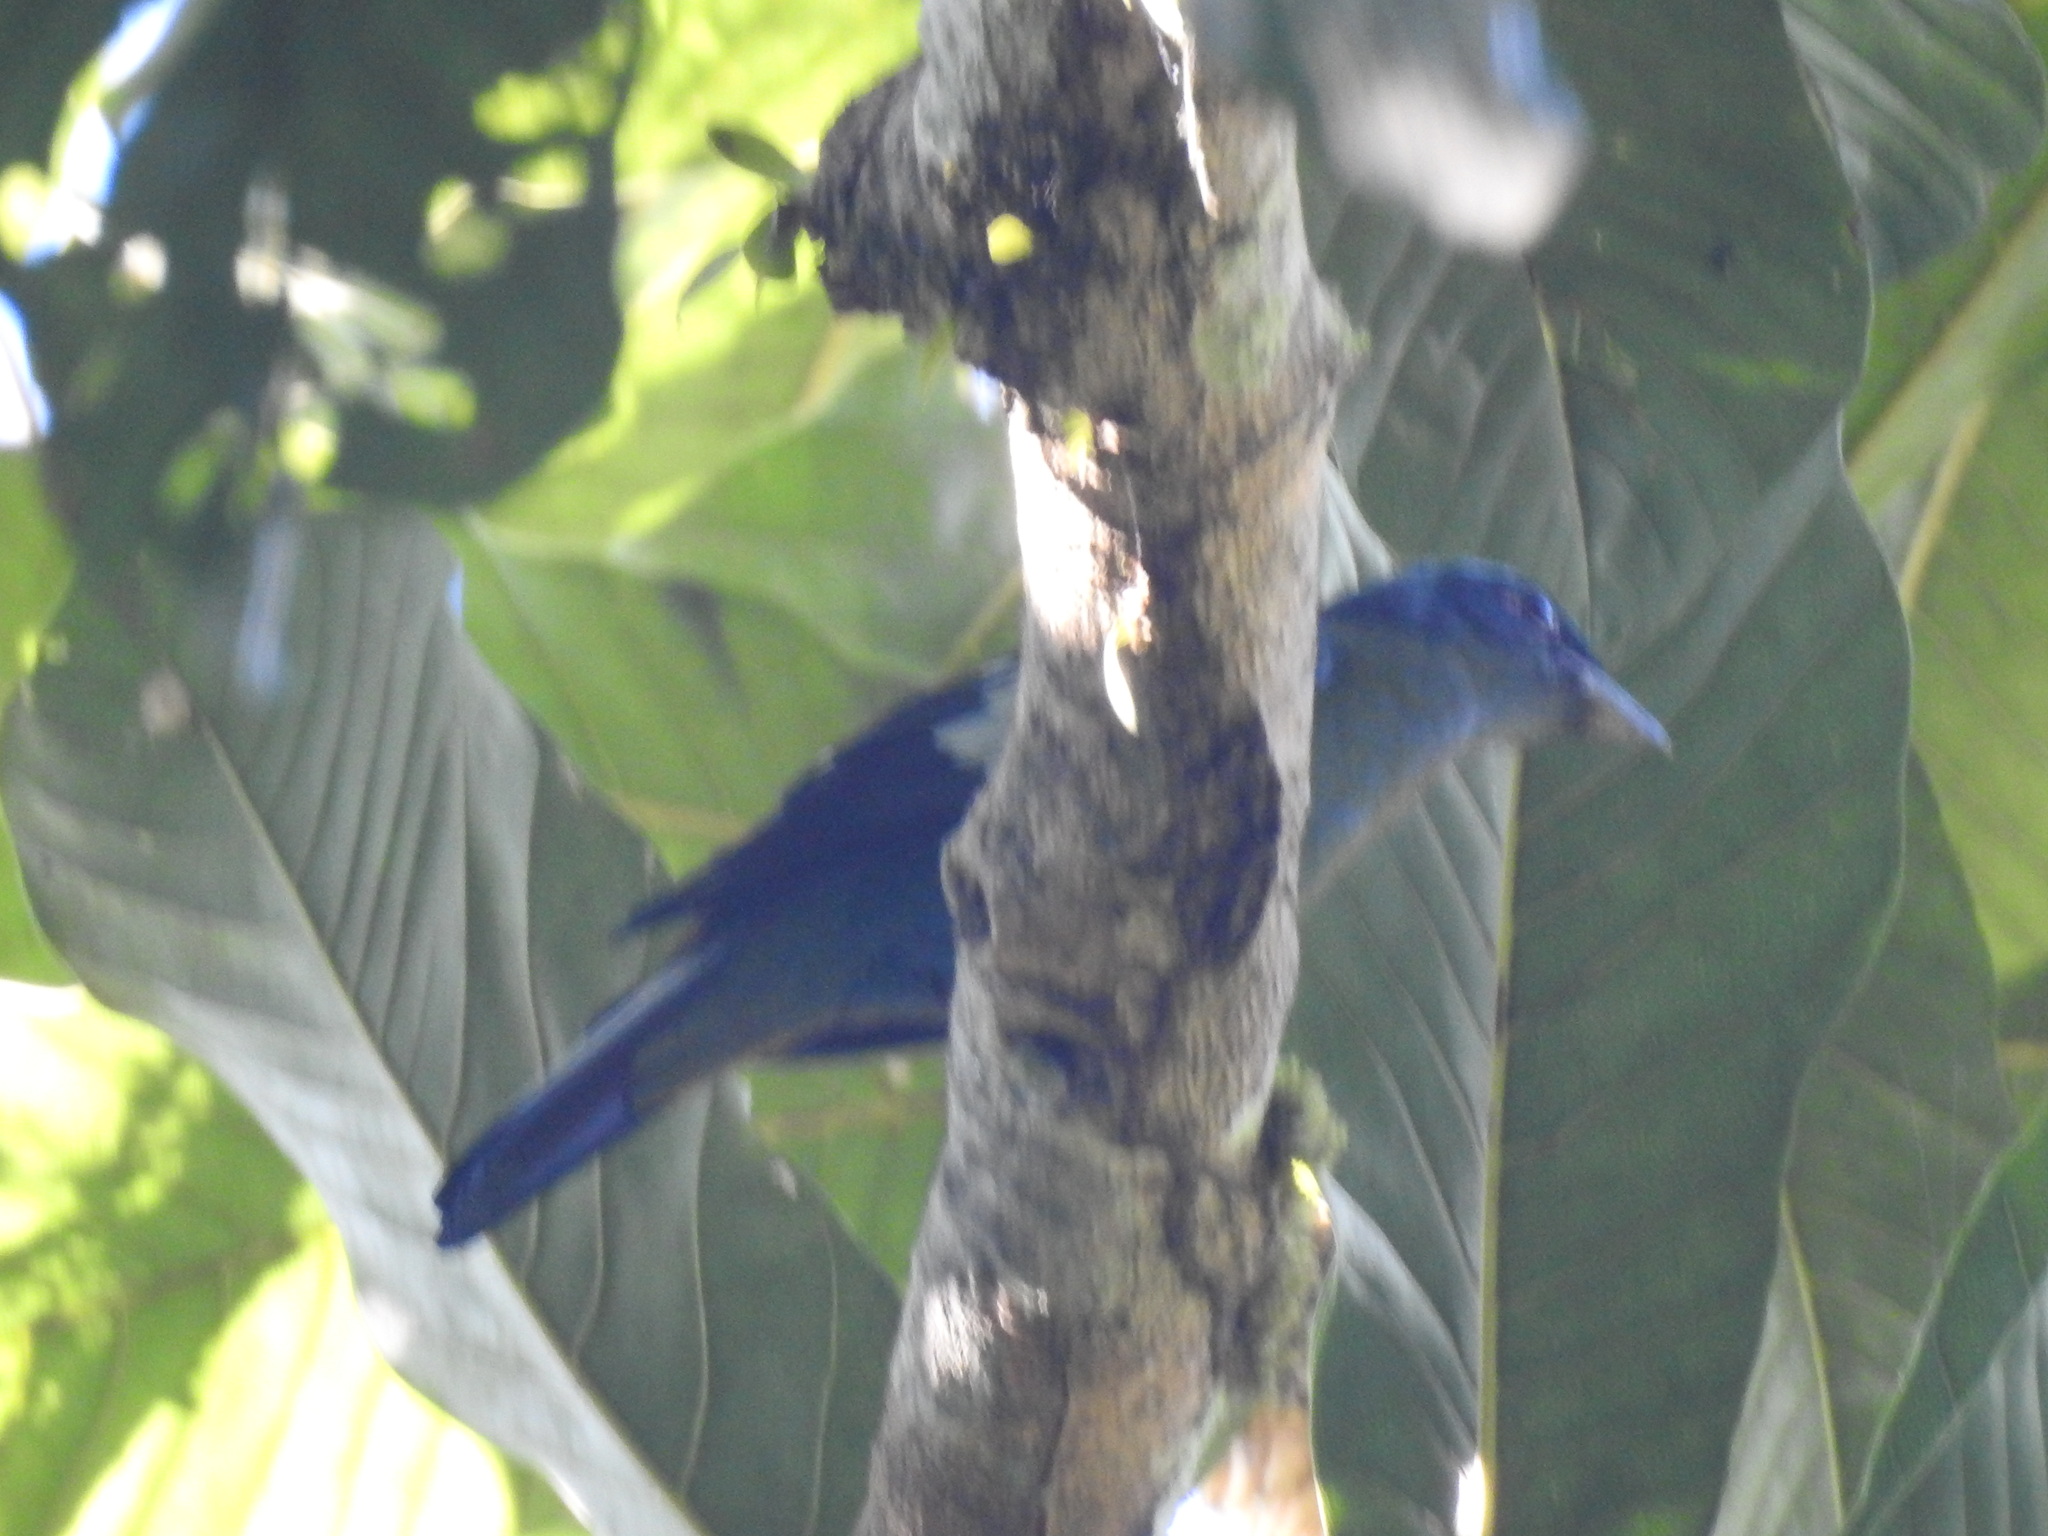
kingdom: Animalia
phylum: Chordata
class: Aves
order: Passeriformes
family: Turdidae
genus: Cochoa
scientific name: Cochoa viridis
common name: Green cochoa
